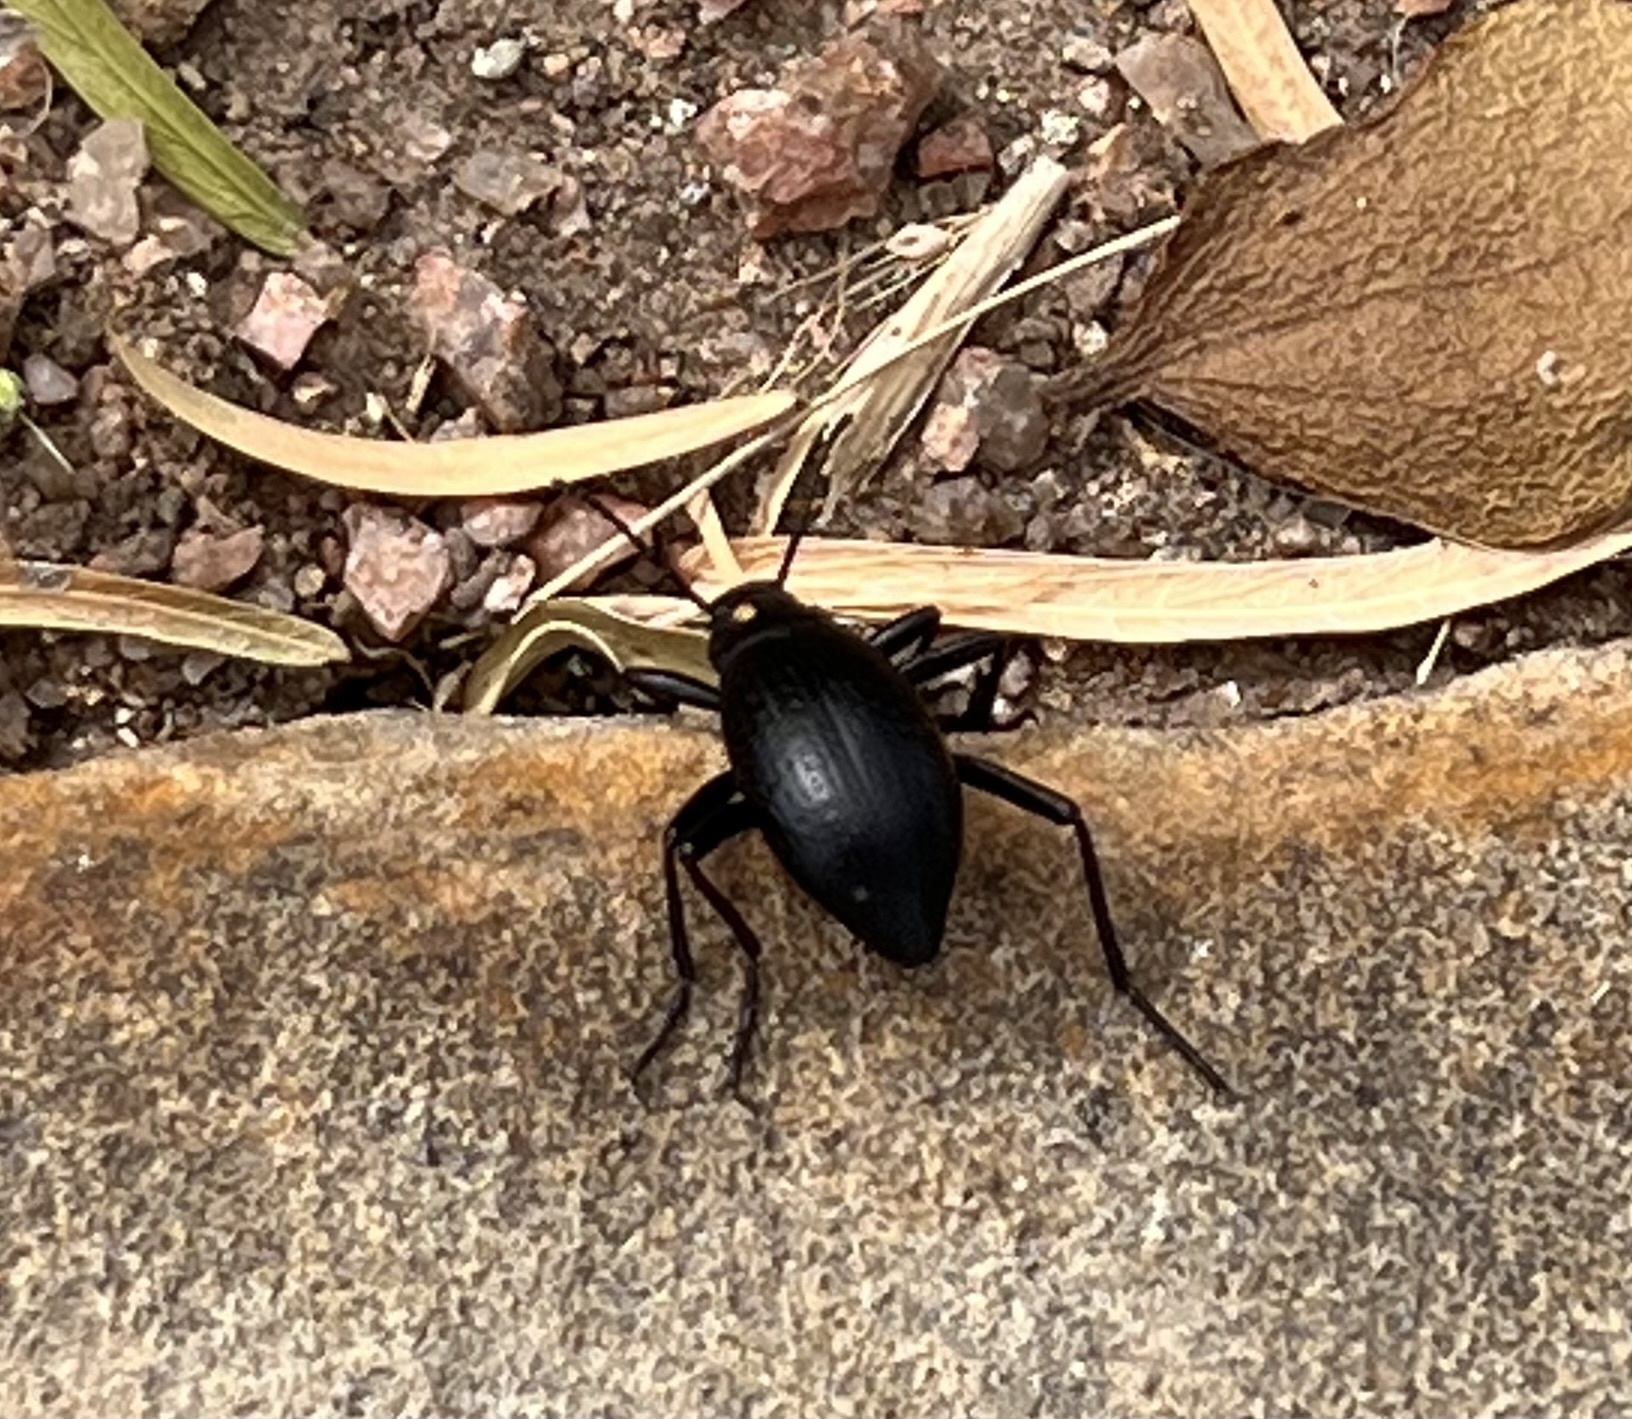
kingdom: Animalia
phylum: Arthropoda
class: Insecta
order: Coleoptera
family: Tenebrionidae
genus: Eleodes
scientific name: Eleodes goryi
